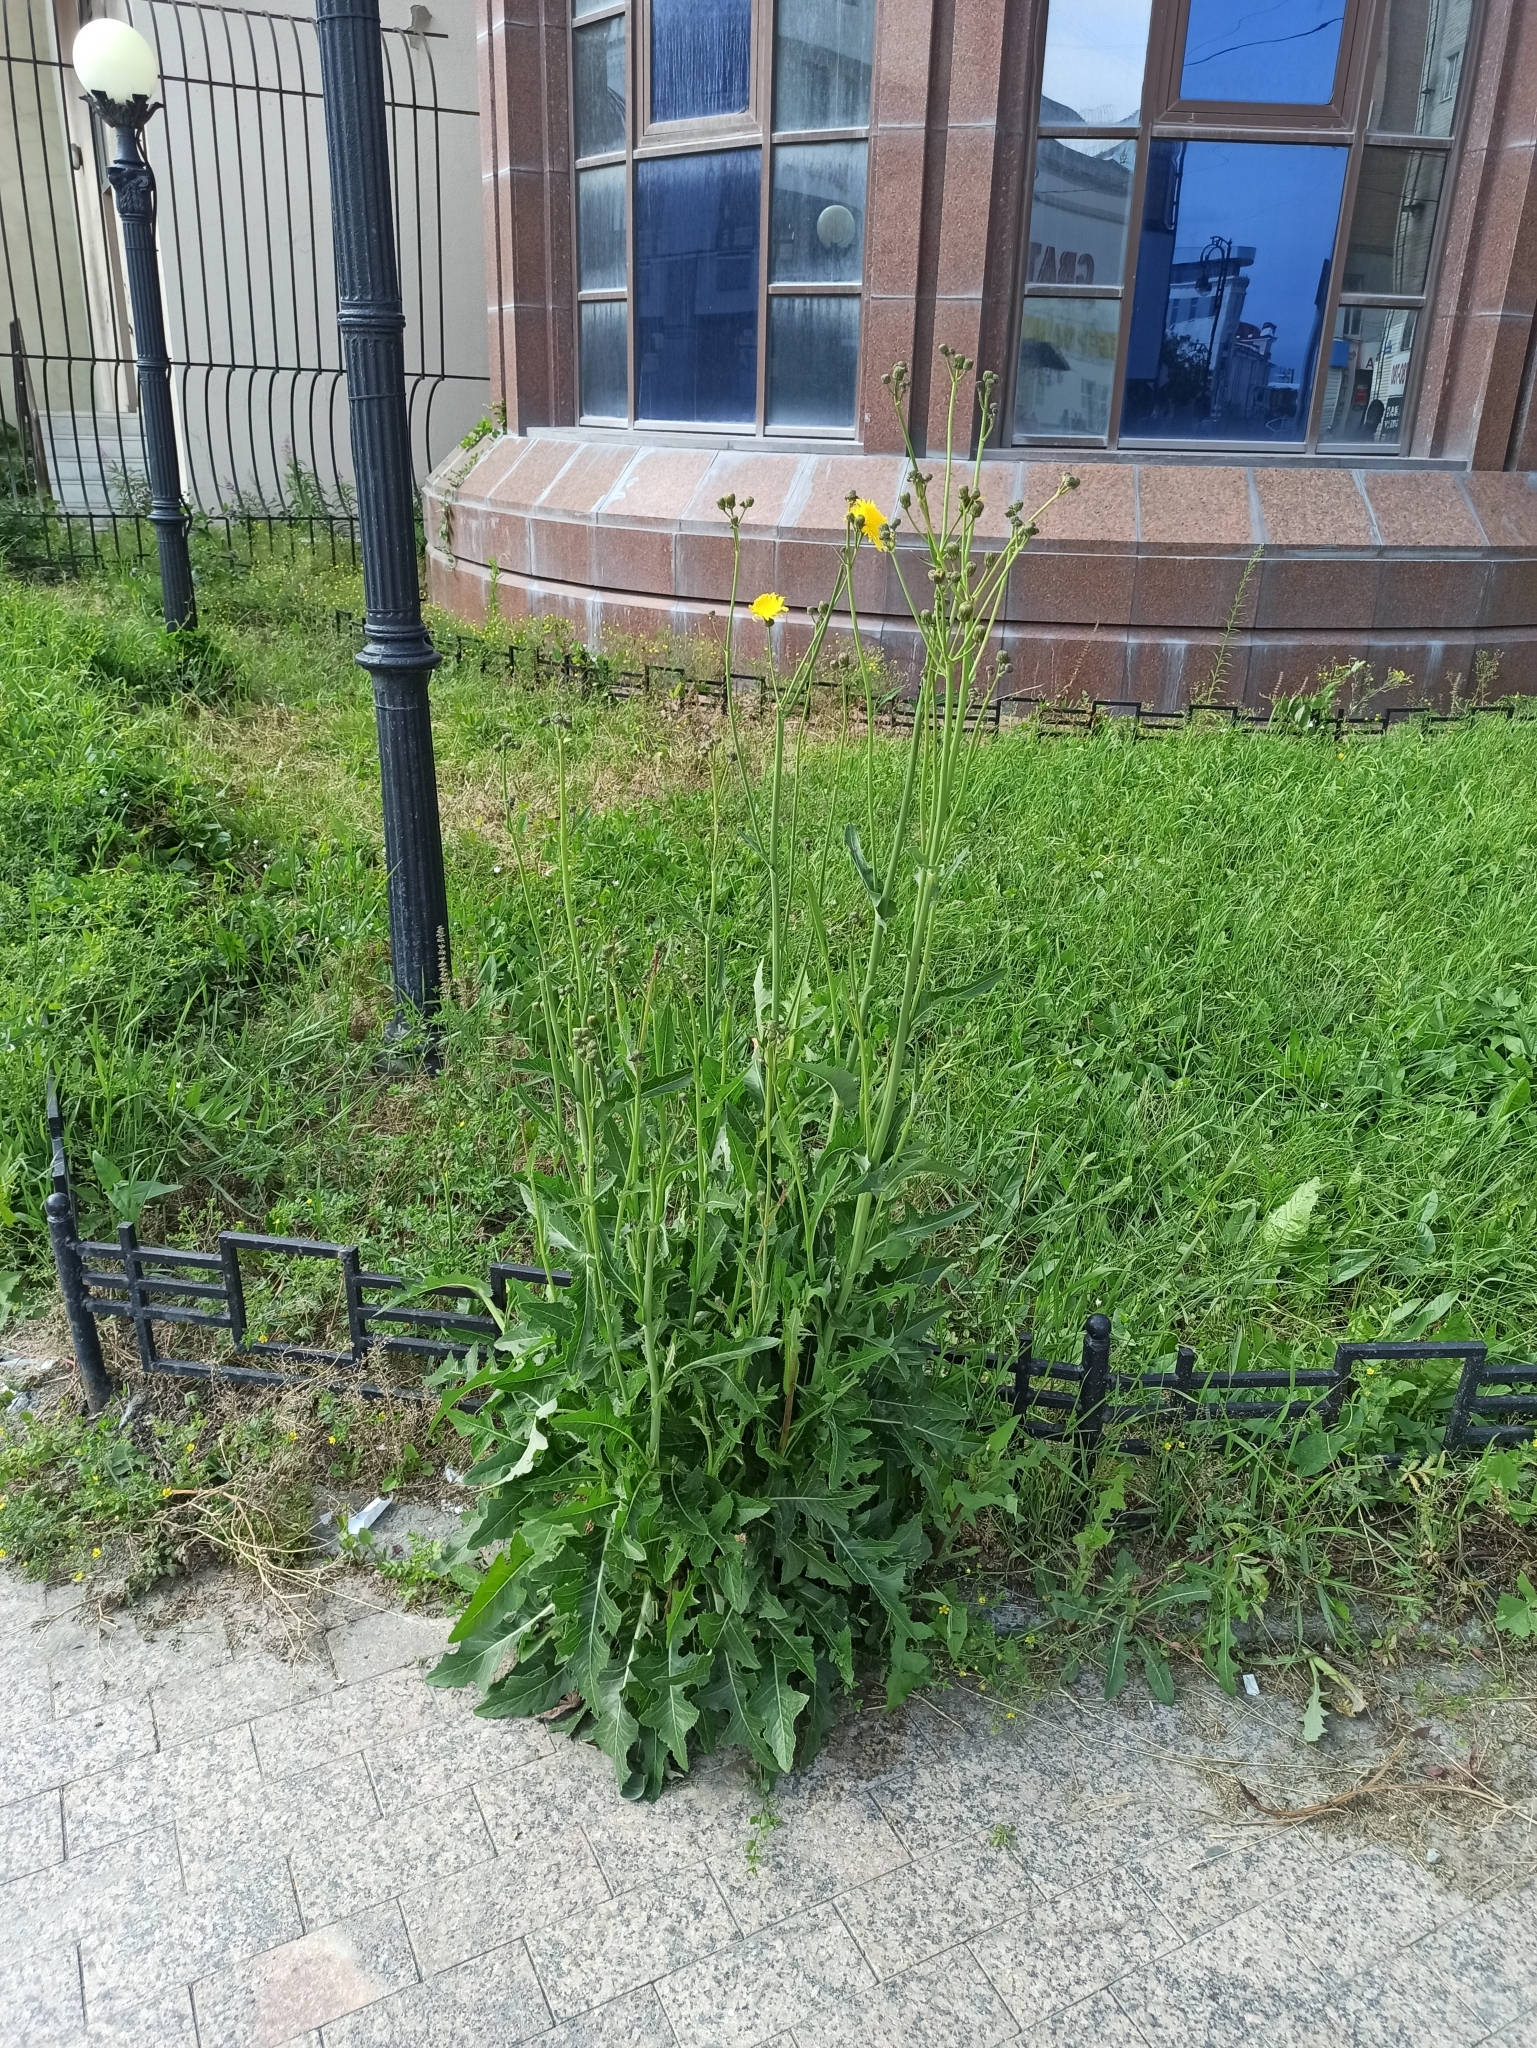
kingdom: Plantae
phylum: Tracheophyta
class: Magnoliopsida
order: Asterales
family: Asteraceae
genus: Sonchus
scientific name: Sonchus arvensis
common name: Perennial sow-thistle
